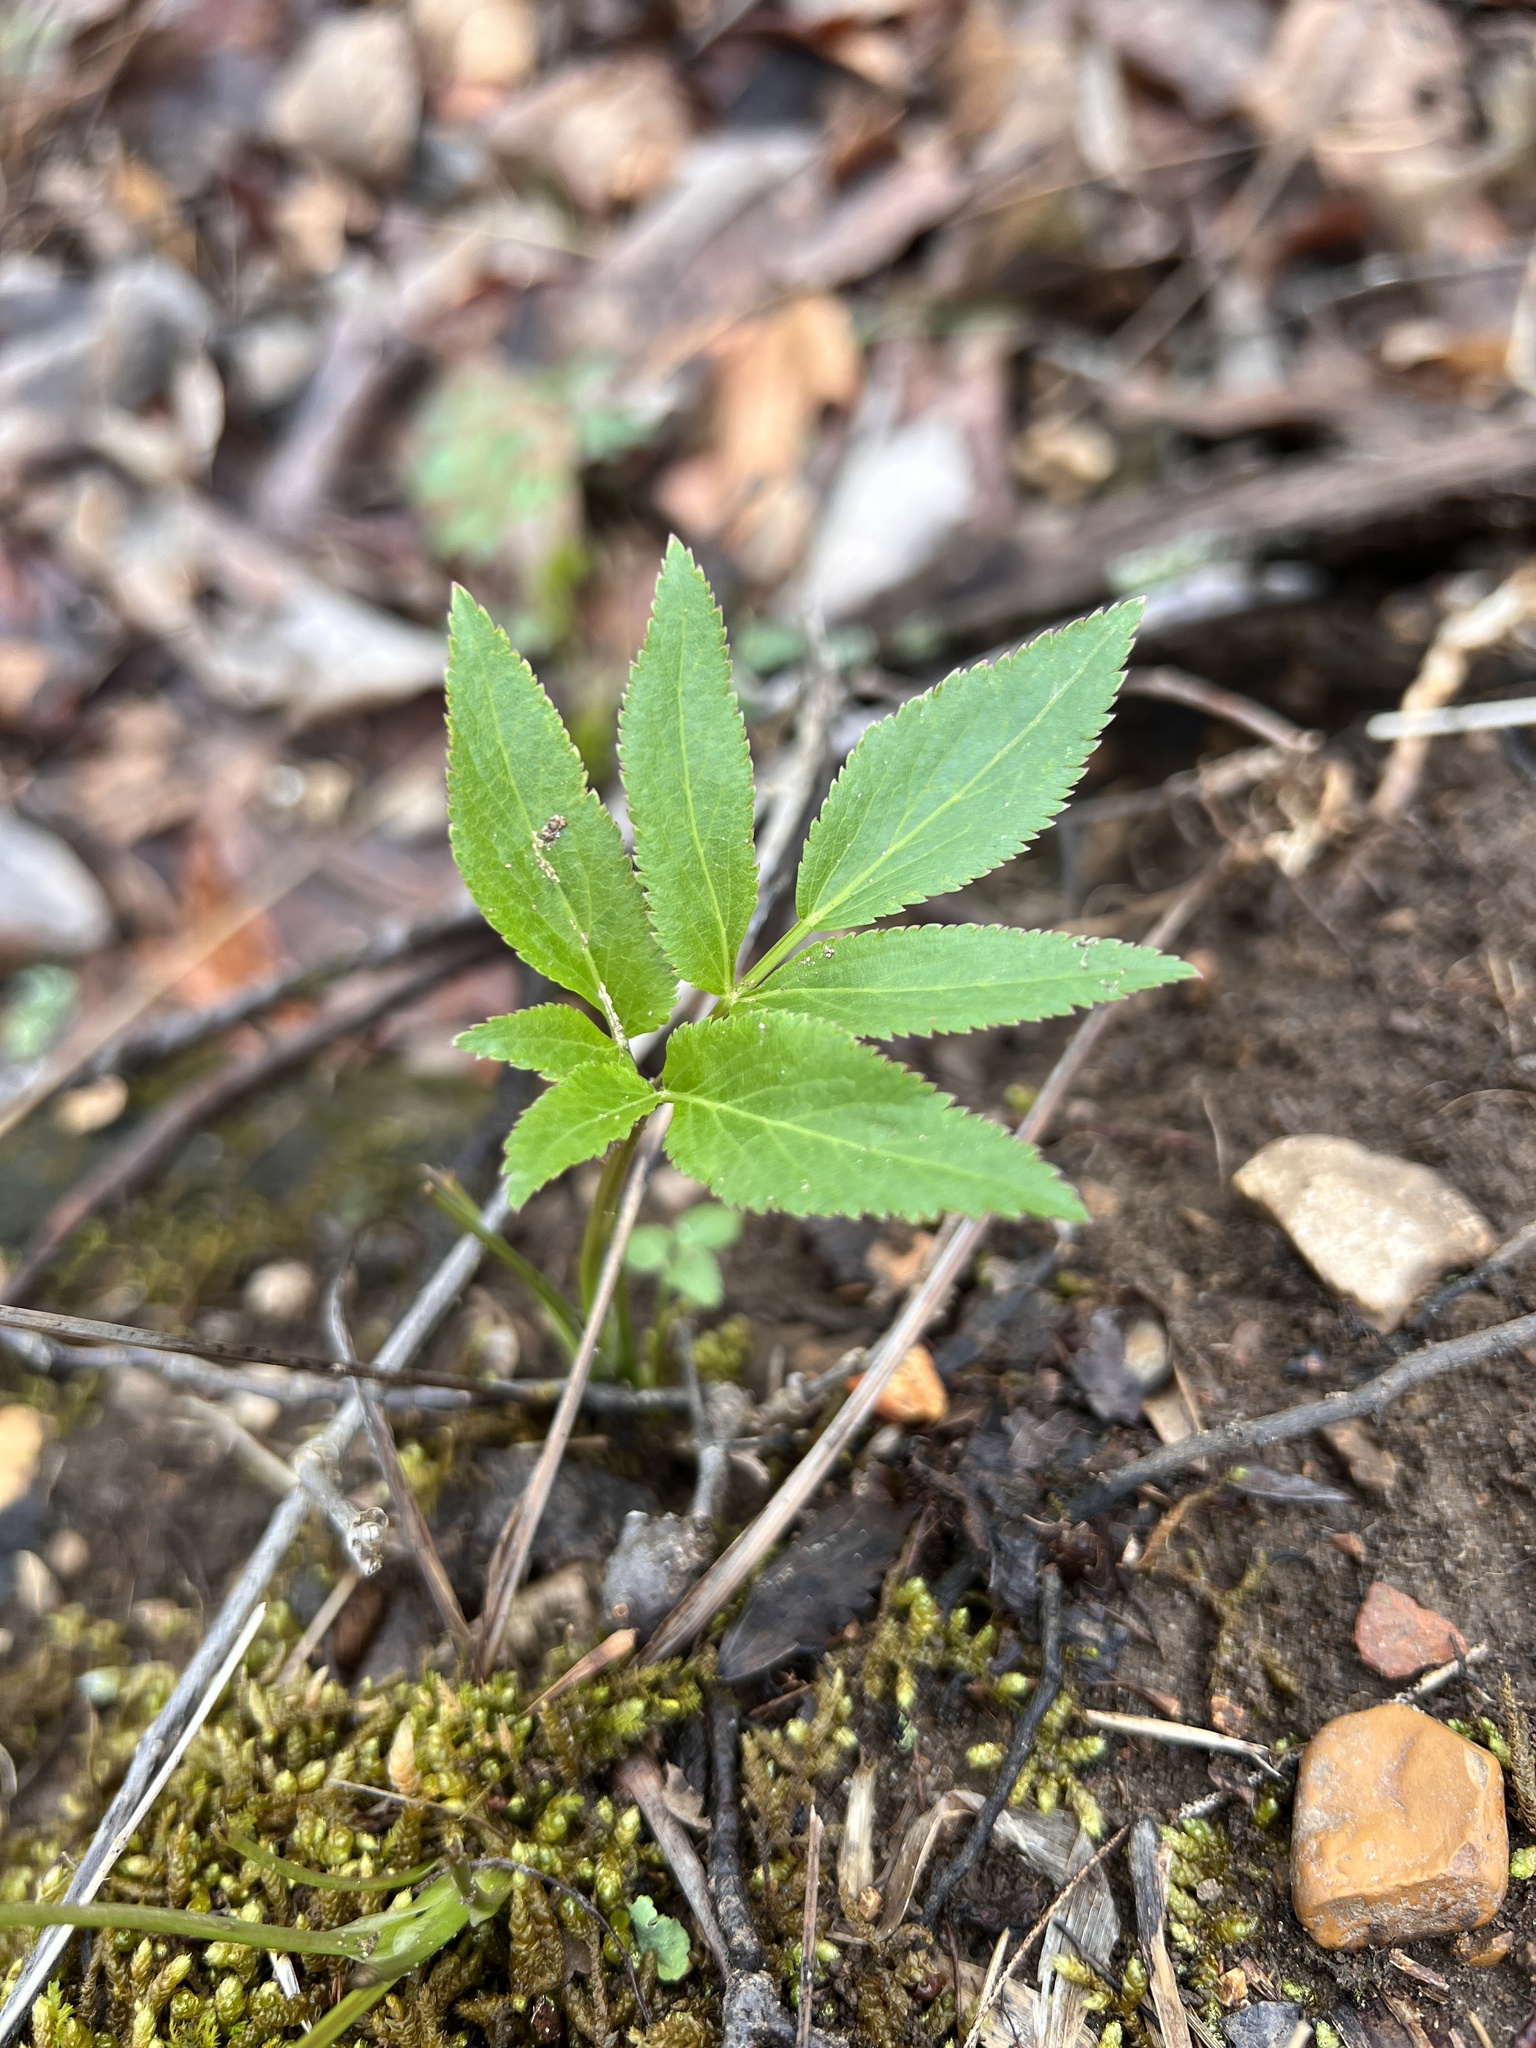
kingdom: Plantae
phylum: Tracheophyta
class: Magnoliopsida
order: Apiales
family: Apiaceae
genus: Zizia
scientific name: Zizia aurea
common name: Golden alexanders
